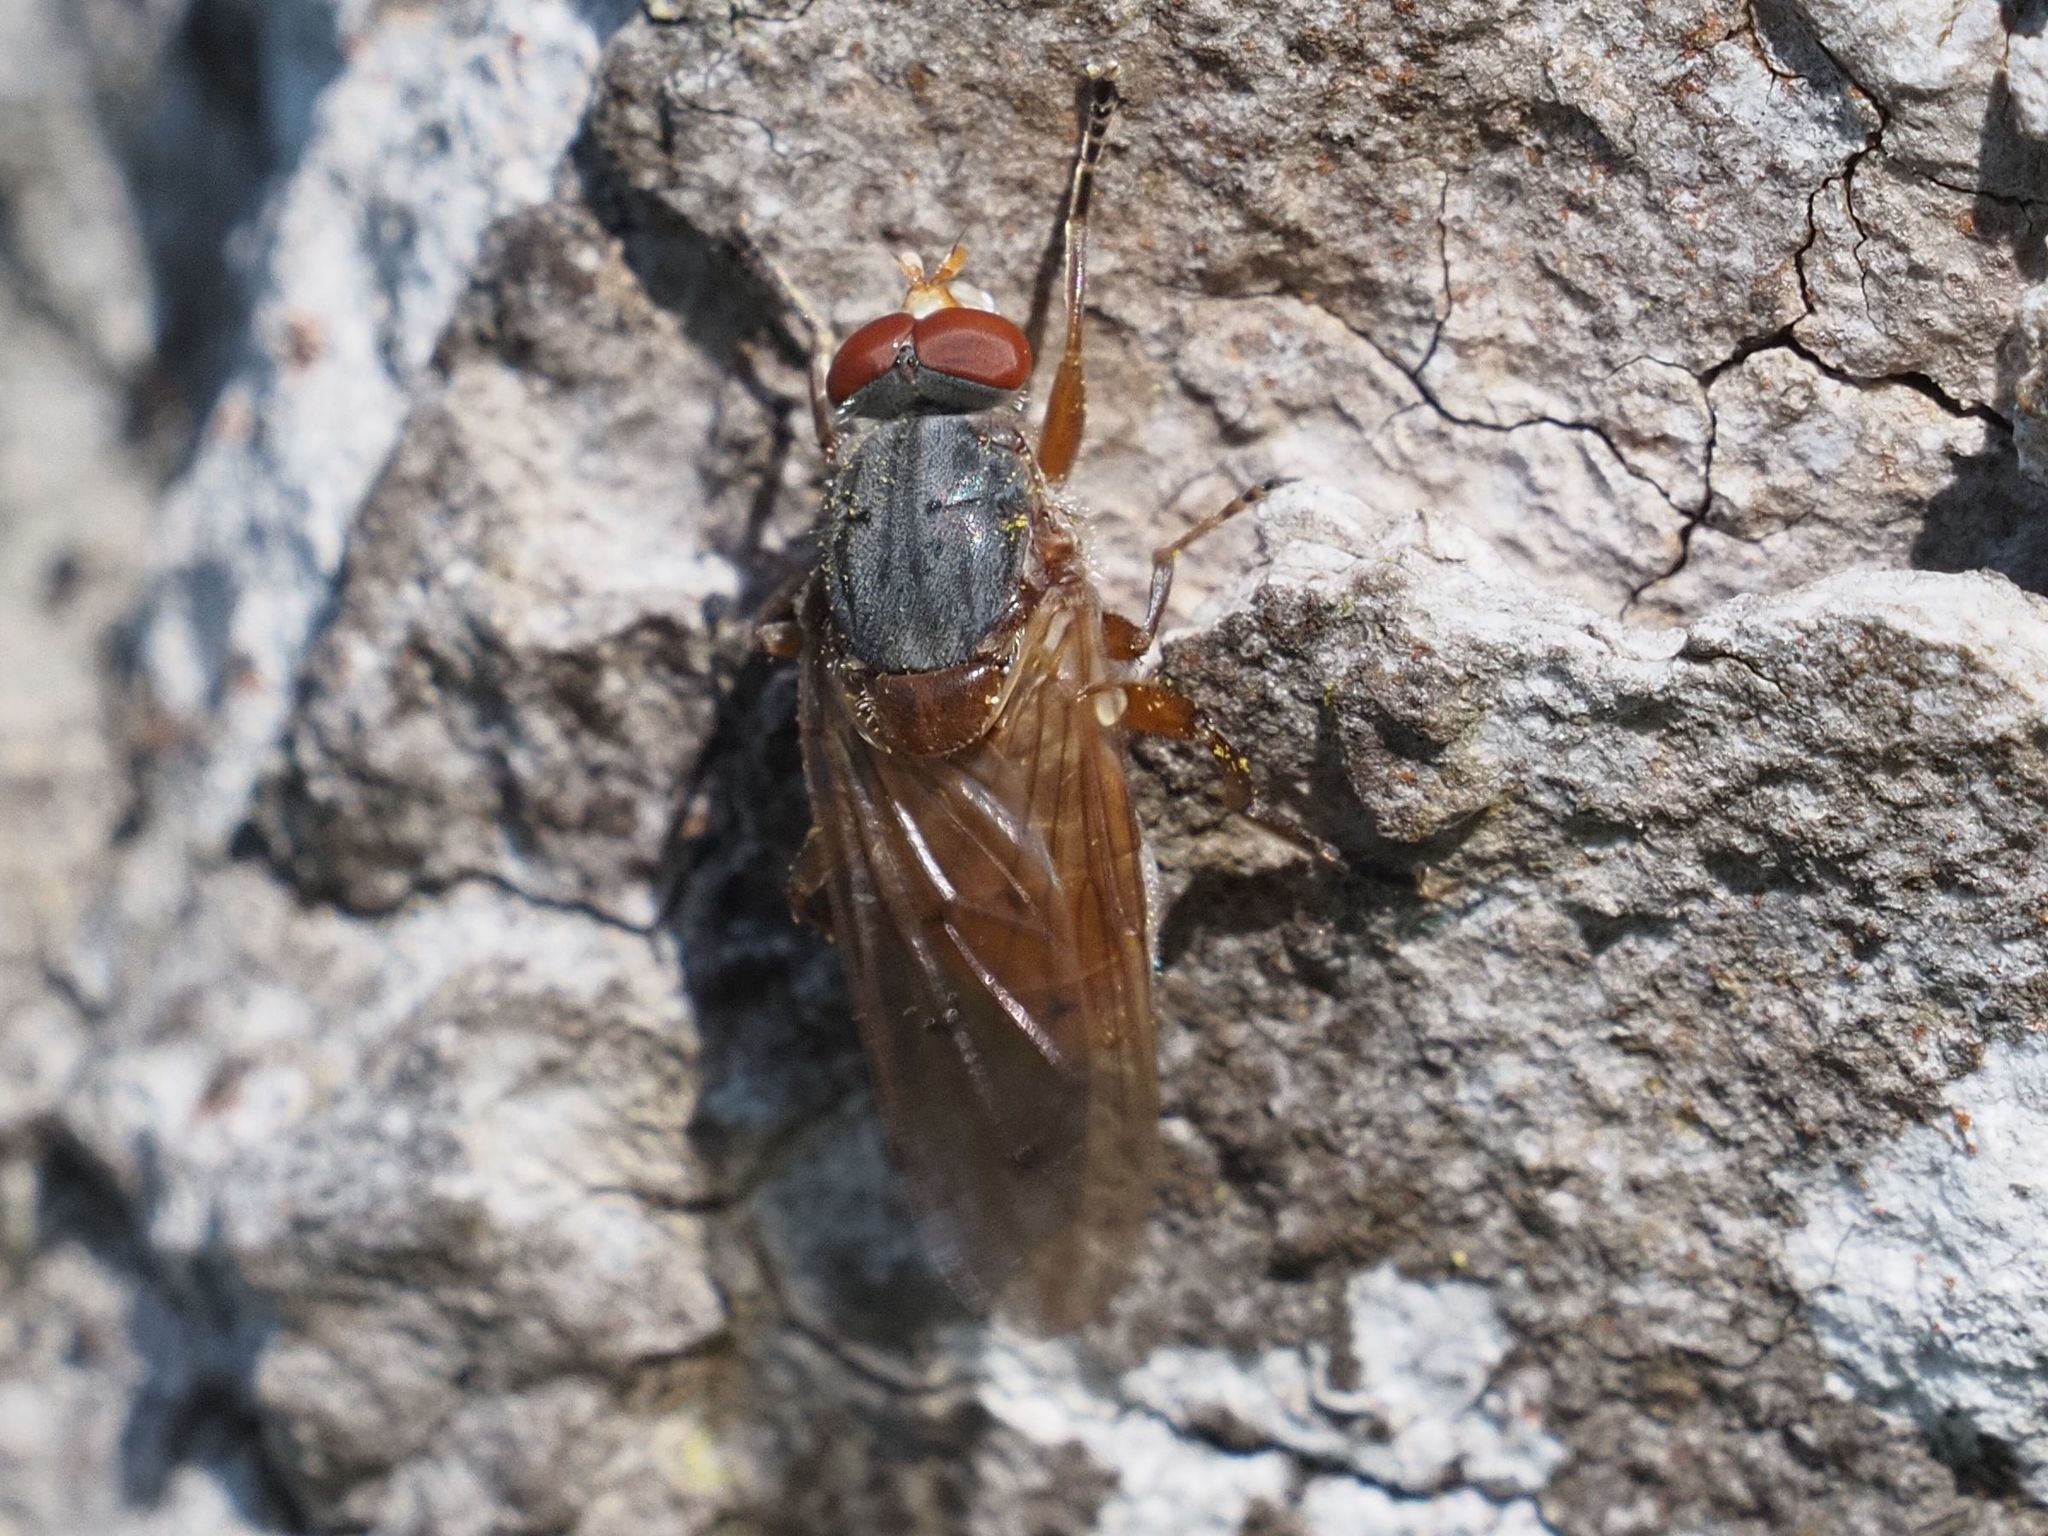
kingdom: Animalia
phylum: Arthropoda
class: Insecta
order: Diptera
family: Syrphidae
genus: Brachyopa
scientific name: Brachyopa maculipennis
